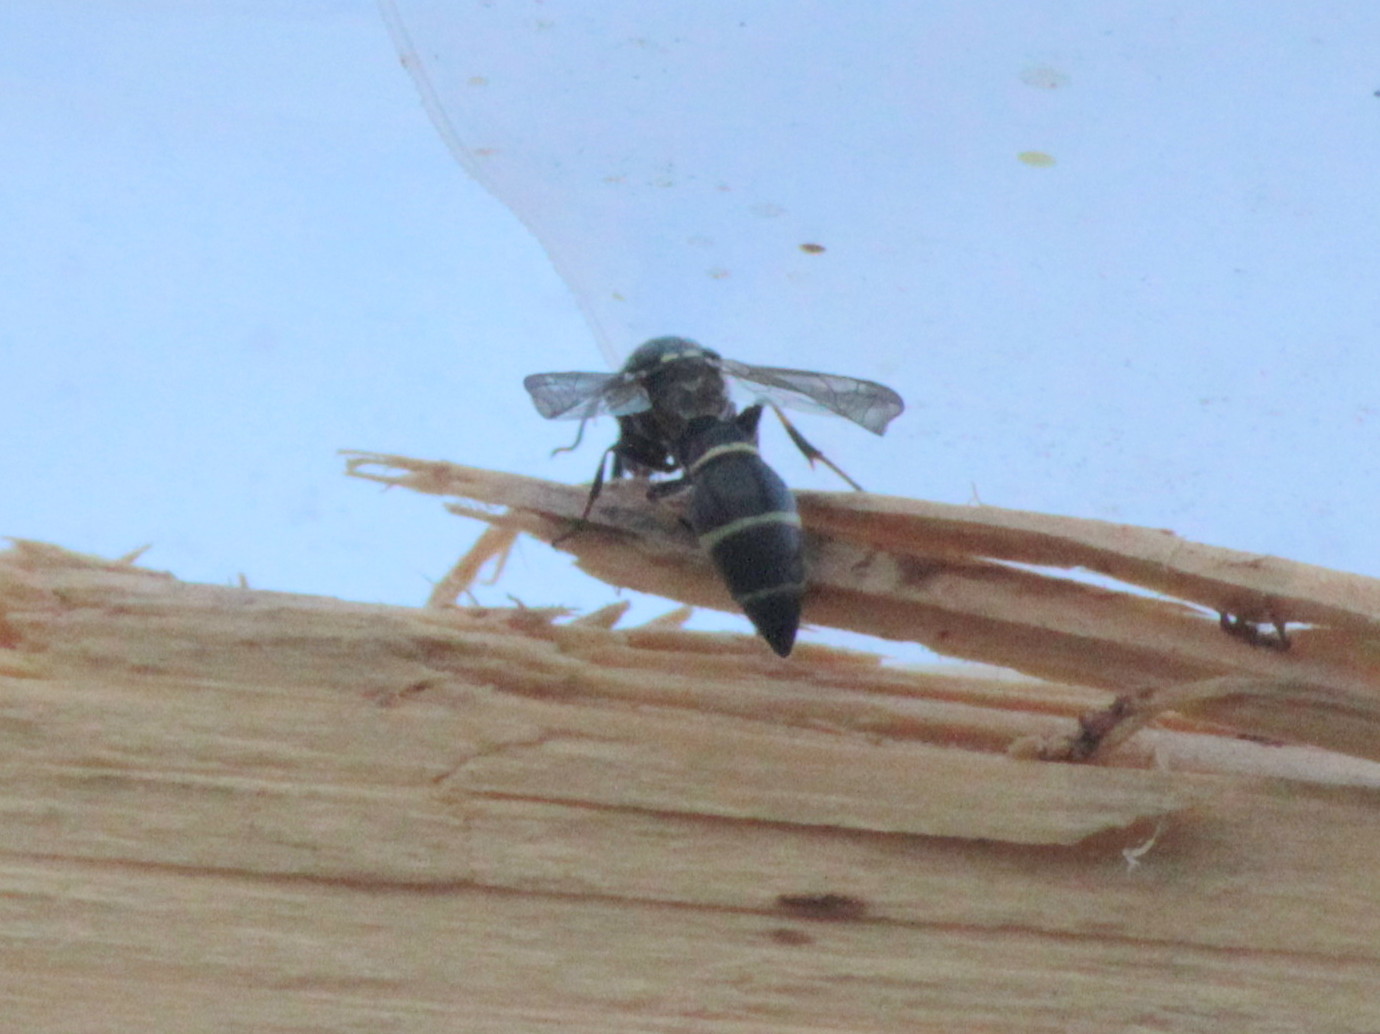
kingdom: Animalia
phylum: Arthropoda
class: Insecta
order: Hymenoptera
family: Eumenidae
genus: Symmorphus
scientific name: Symmorphus cristatus
